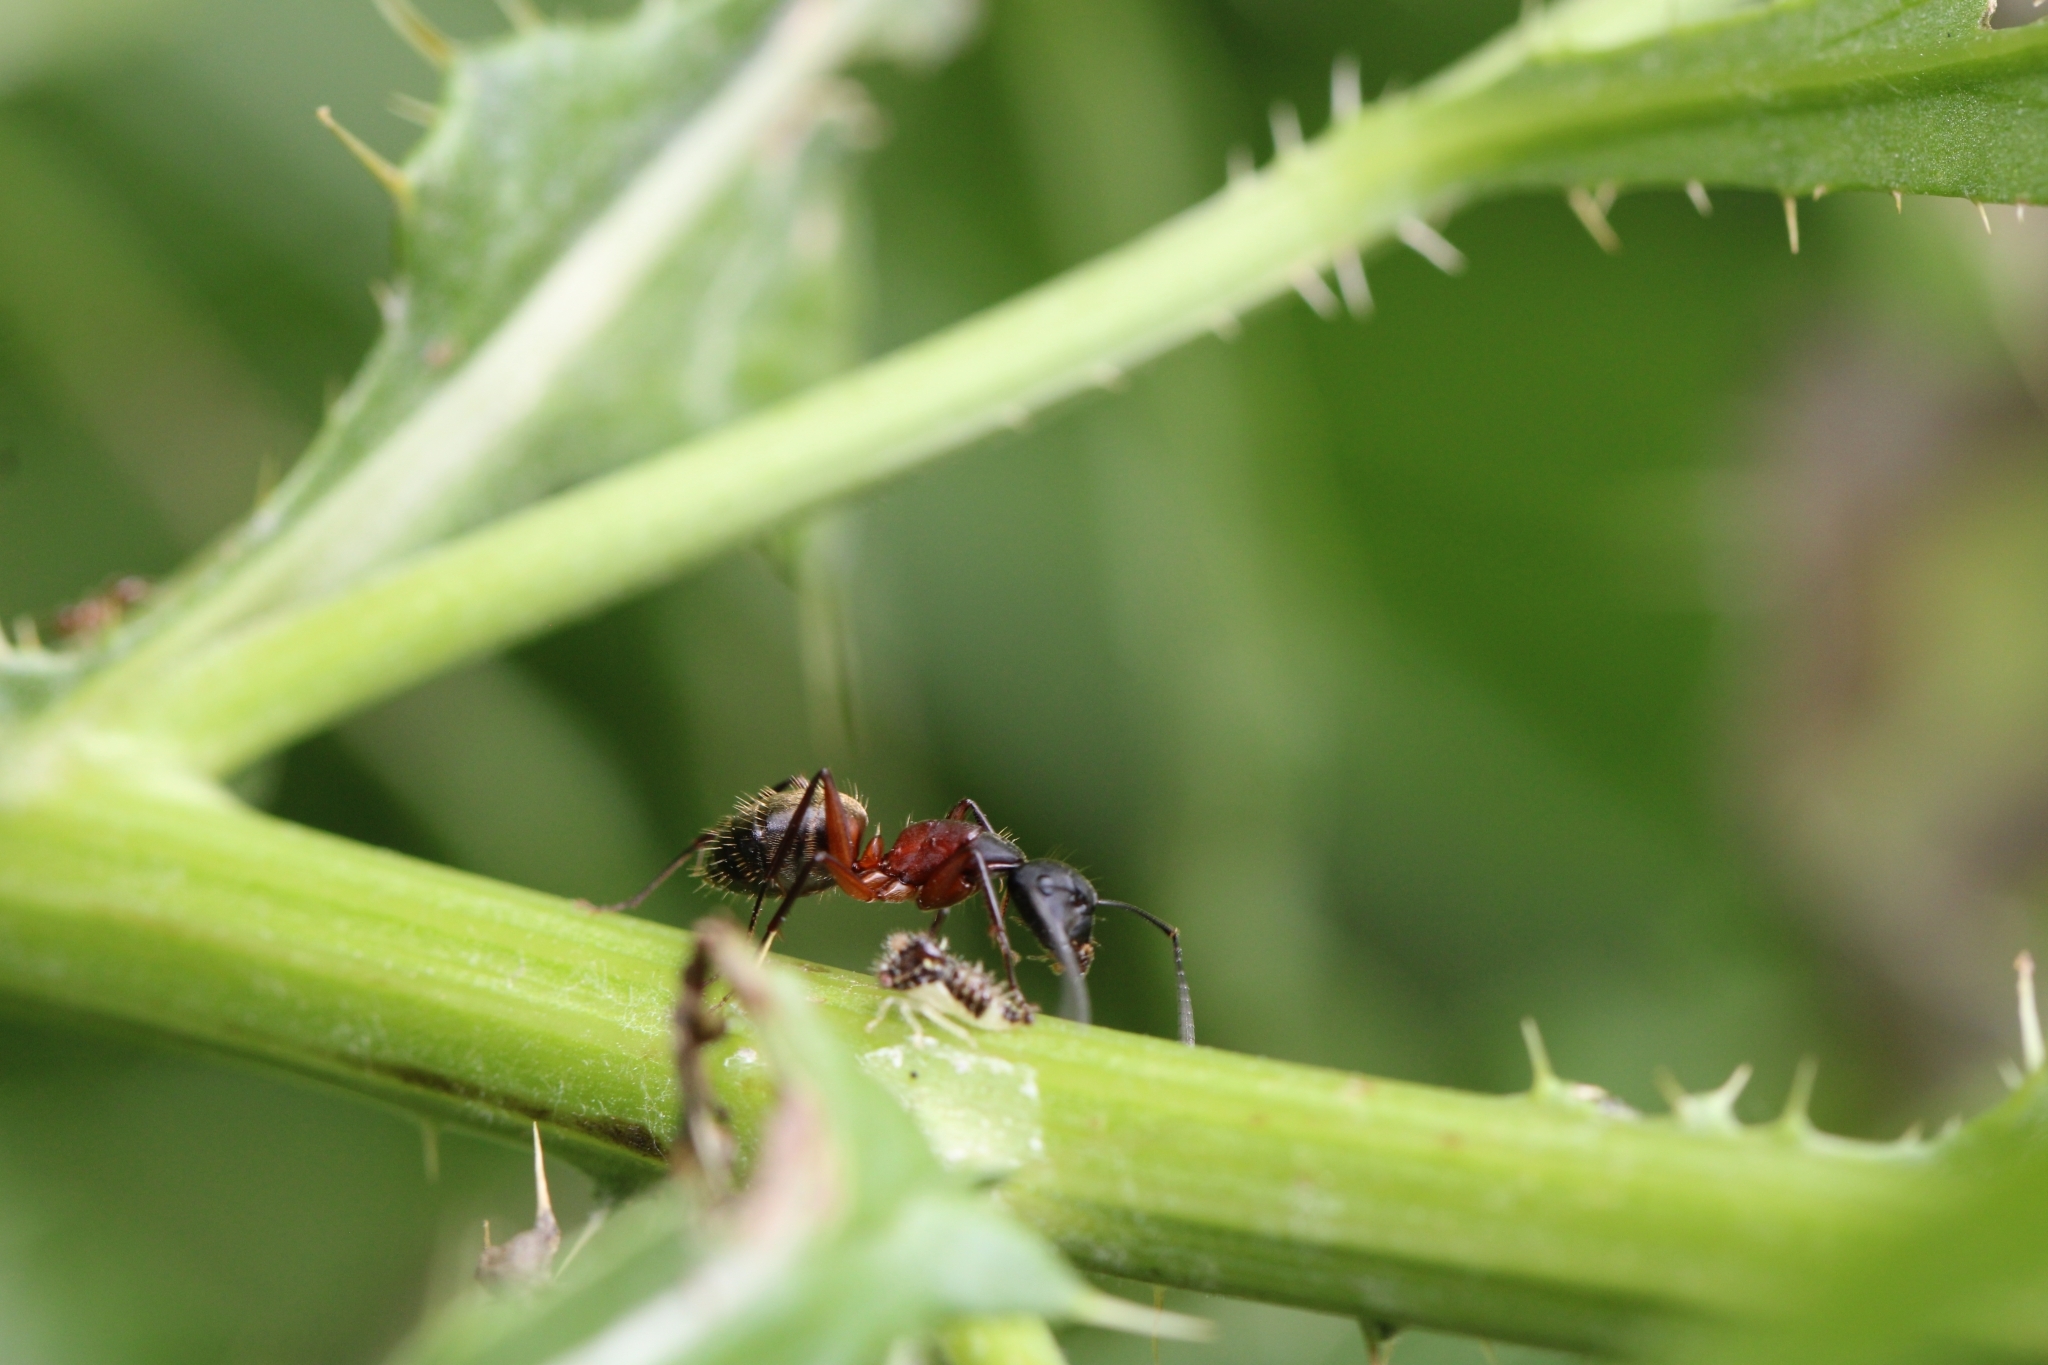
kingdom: Animalia
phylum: Arthropoda
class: Insecta
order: Hymenoptera
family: Formicidae
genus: Camponotus
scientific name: Camponotus chromaiodes
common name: Red carpenter ant
